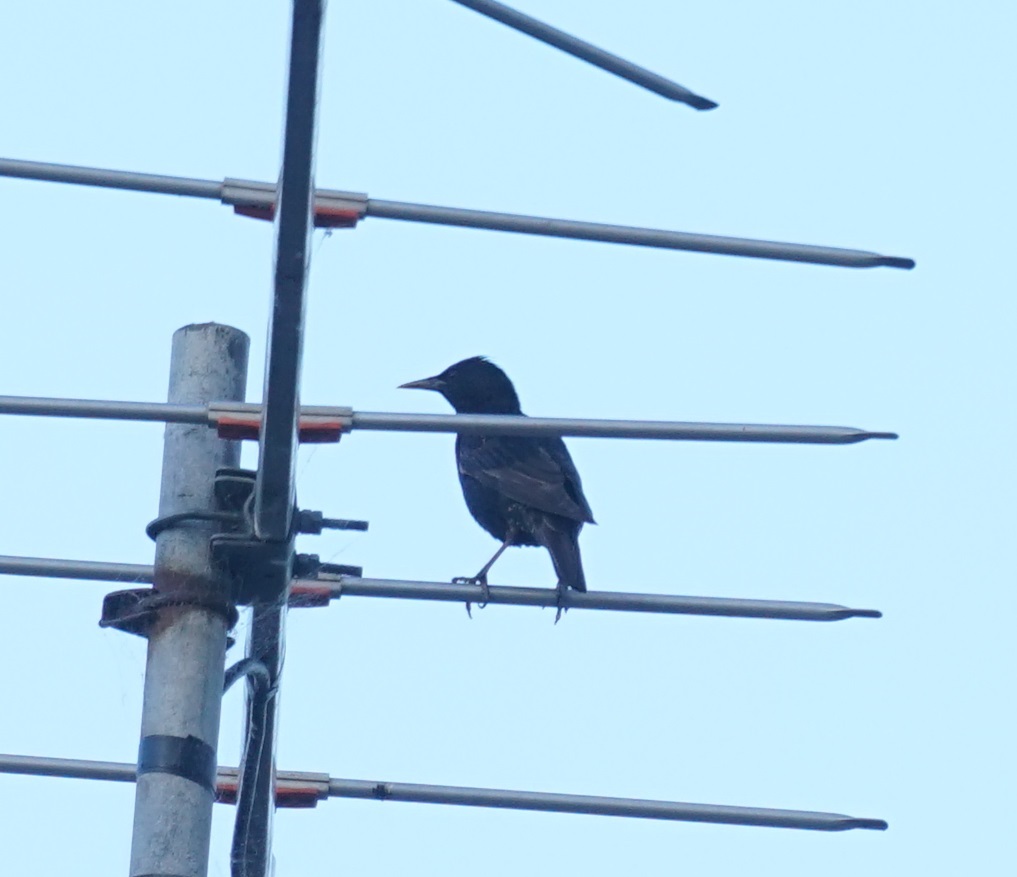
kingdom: Animalia
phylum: Chordata
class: Aves
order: Passeriformes
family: Sturnidae
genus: Sturnus
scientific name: Sturnus vulgaris
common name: Common starling
